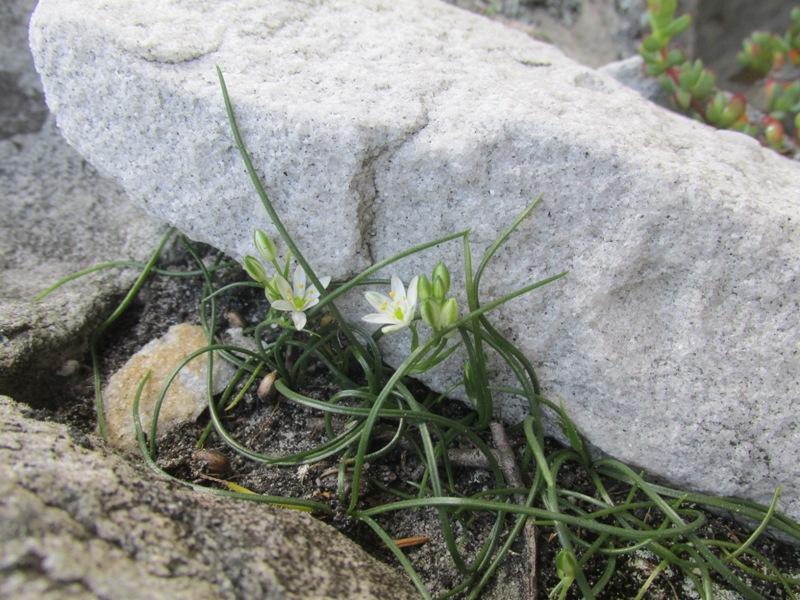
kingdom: Plantae
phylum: Tracheophyta
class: Liliopsida
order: Asparagales
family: Asparagaceae
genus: Ornithogalum
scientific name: Ornithogalum niveum
